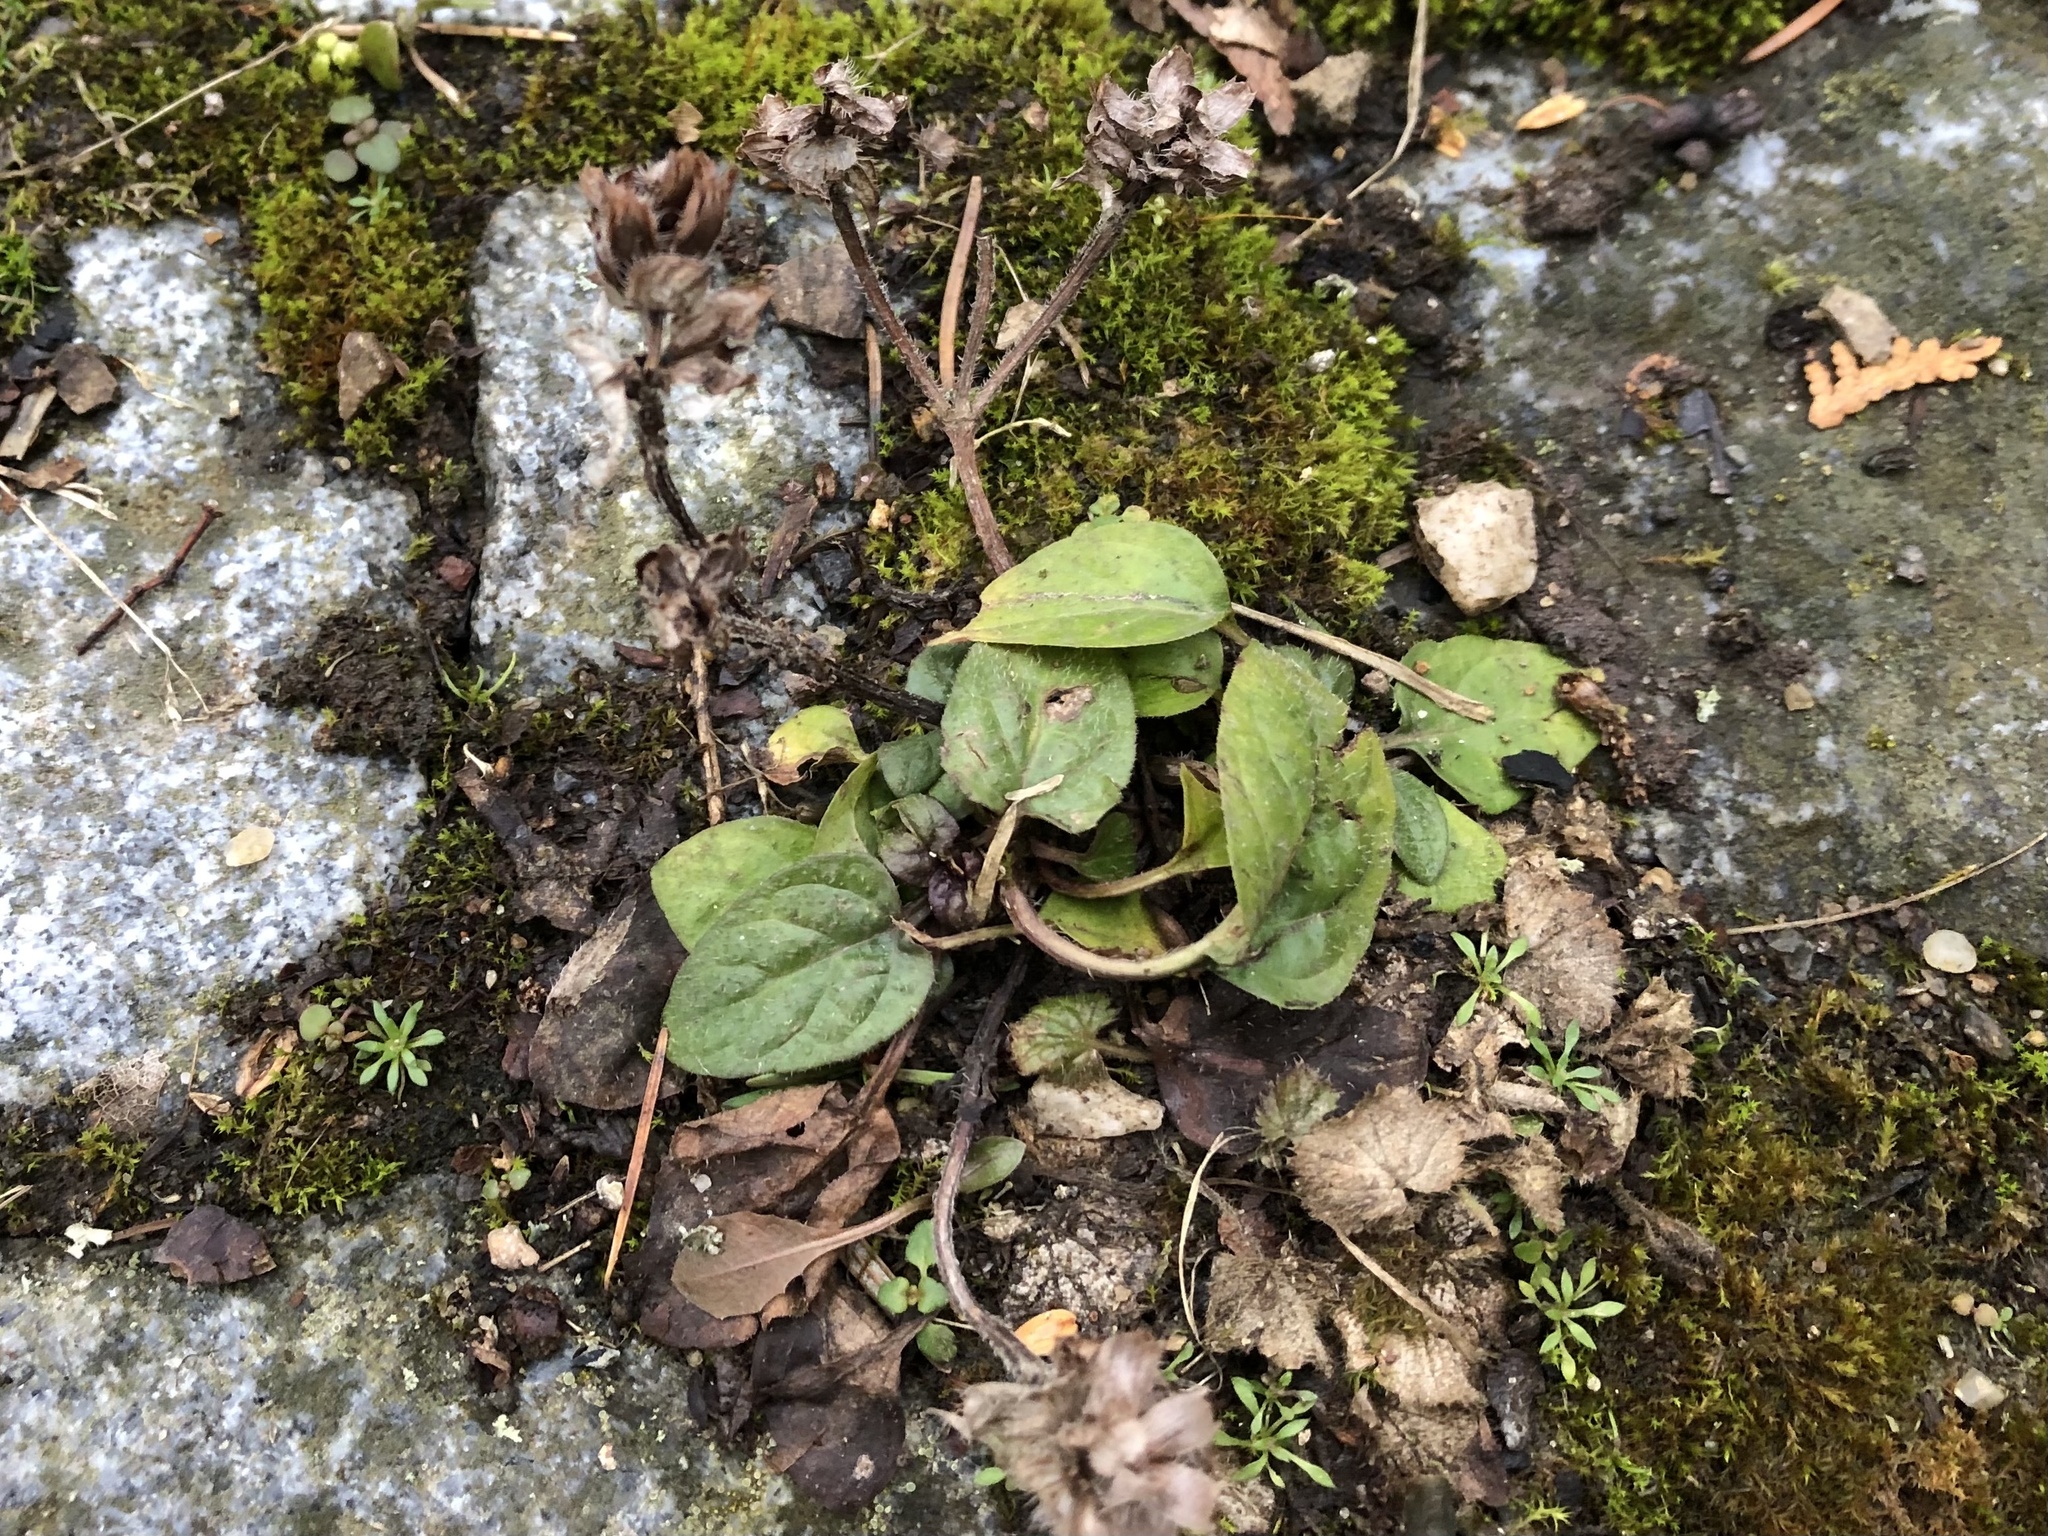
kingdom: Plantae
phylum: Tracheophyta
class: Magnoliopsida
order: Lamiales
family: Lamiaceae
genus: Prunella
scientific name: Prunella vulgaris
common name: Heal-all
